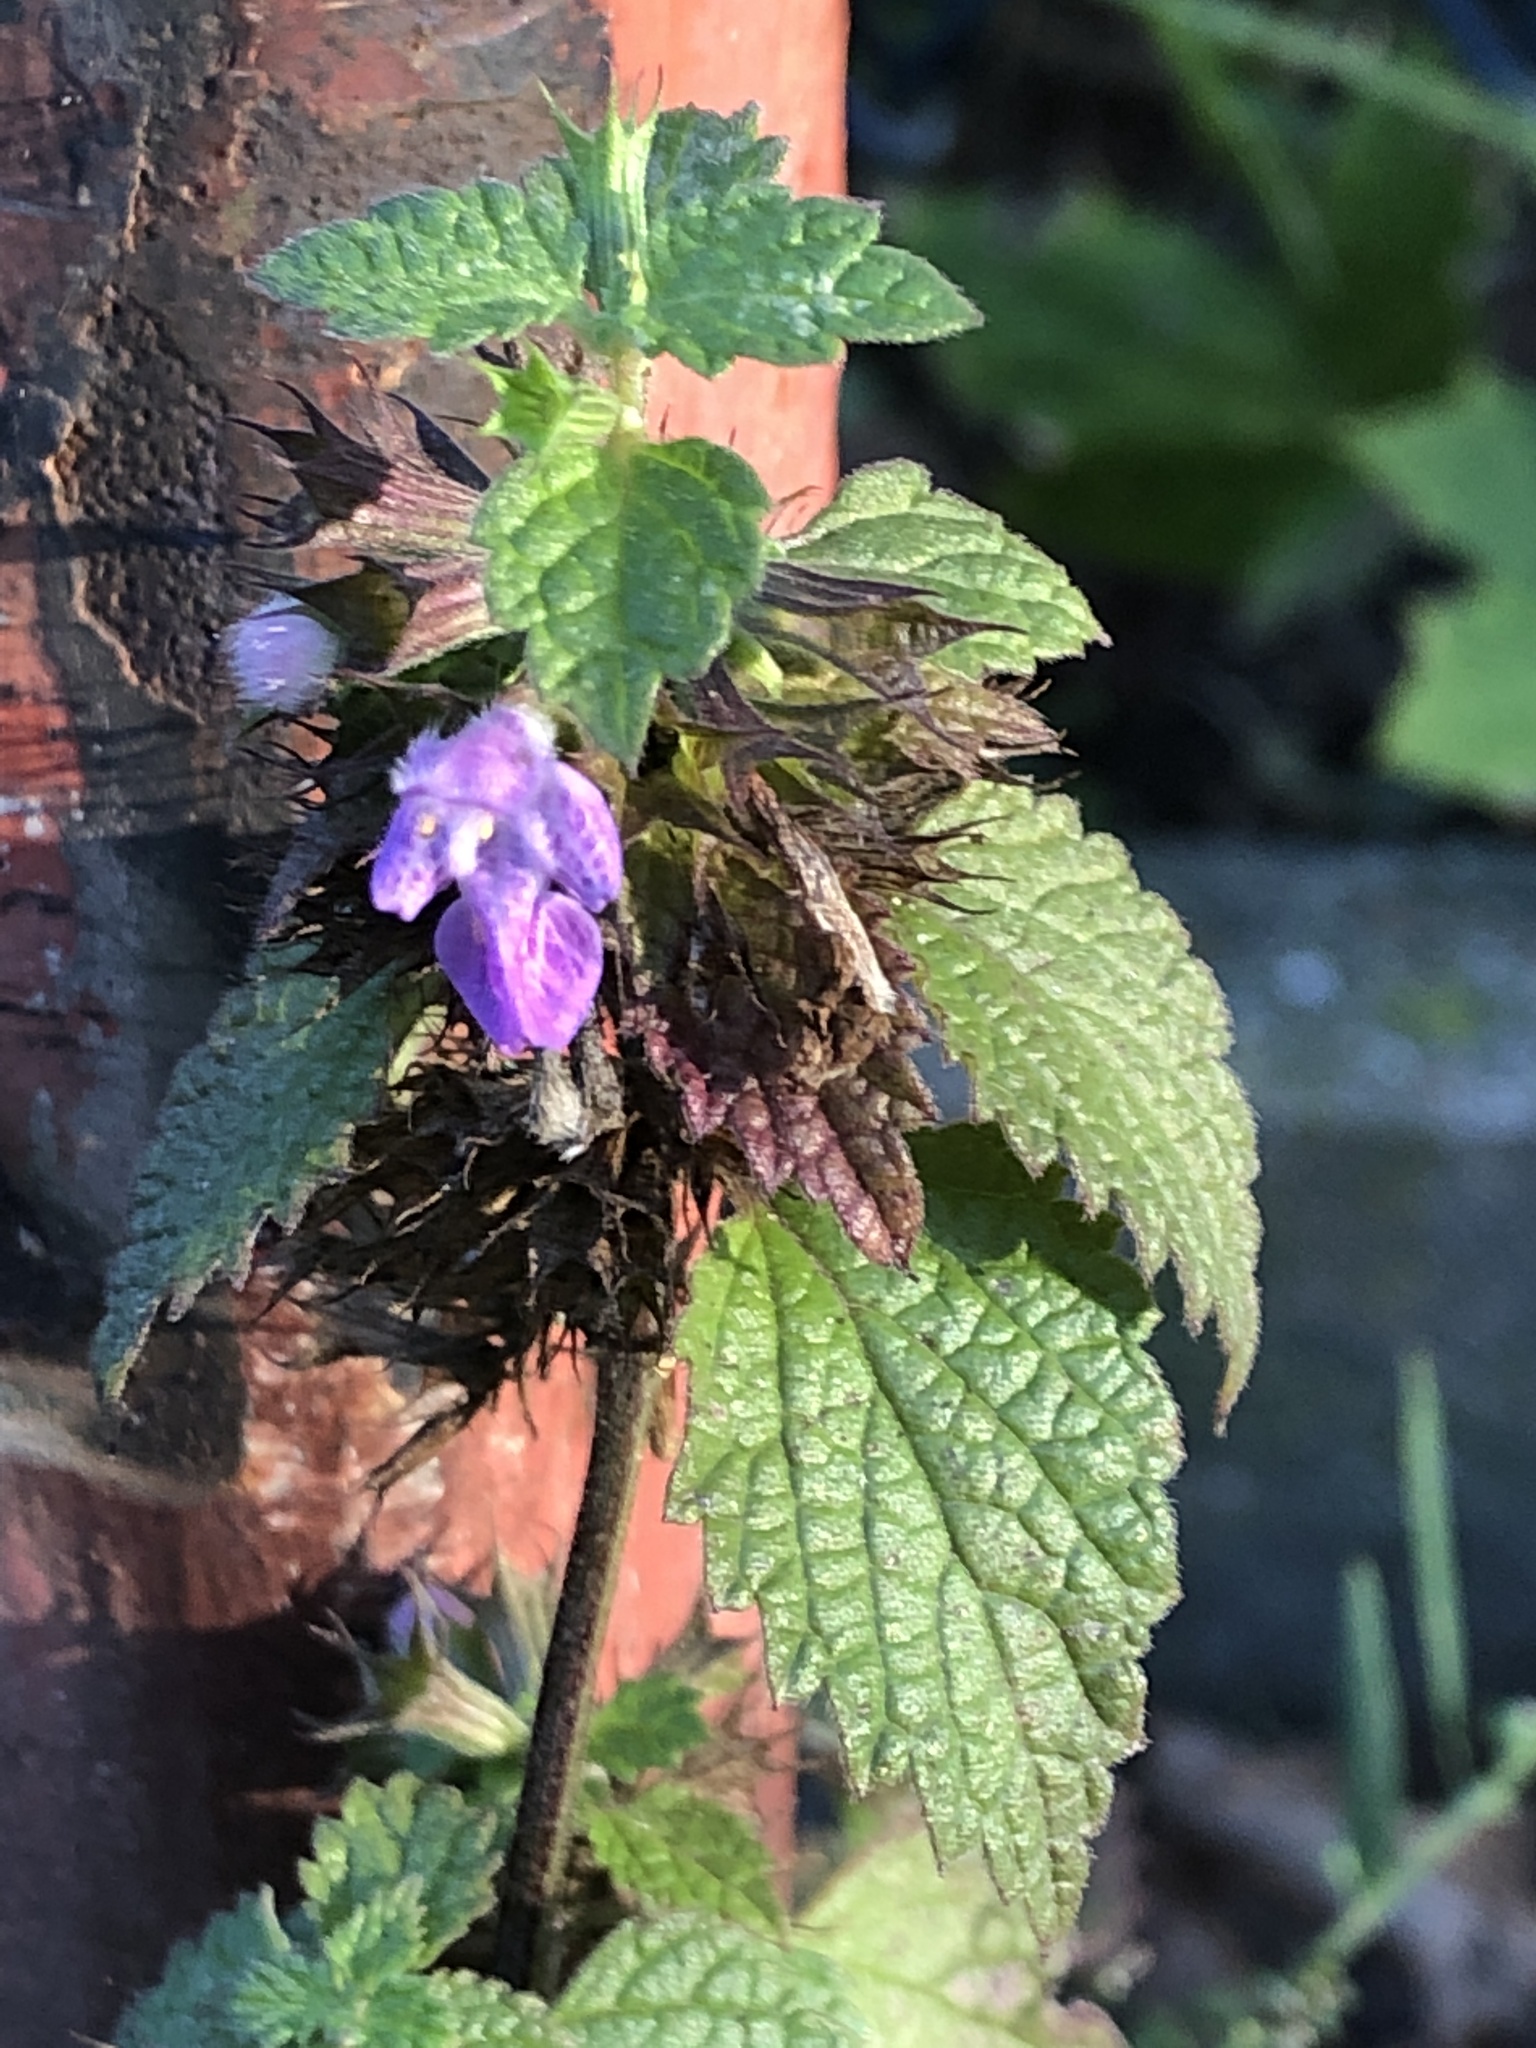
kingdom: Plantae
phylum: Tracheophyta
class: Magnoliopsida
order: Lamiales
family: Lamiaceae
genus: Ballota
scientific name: Ballota nigra
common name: Black horehound
